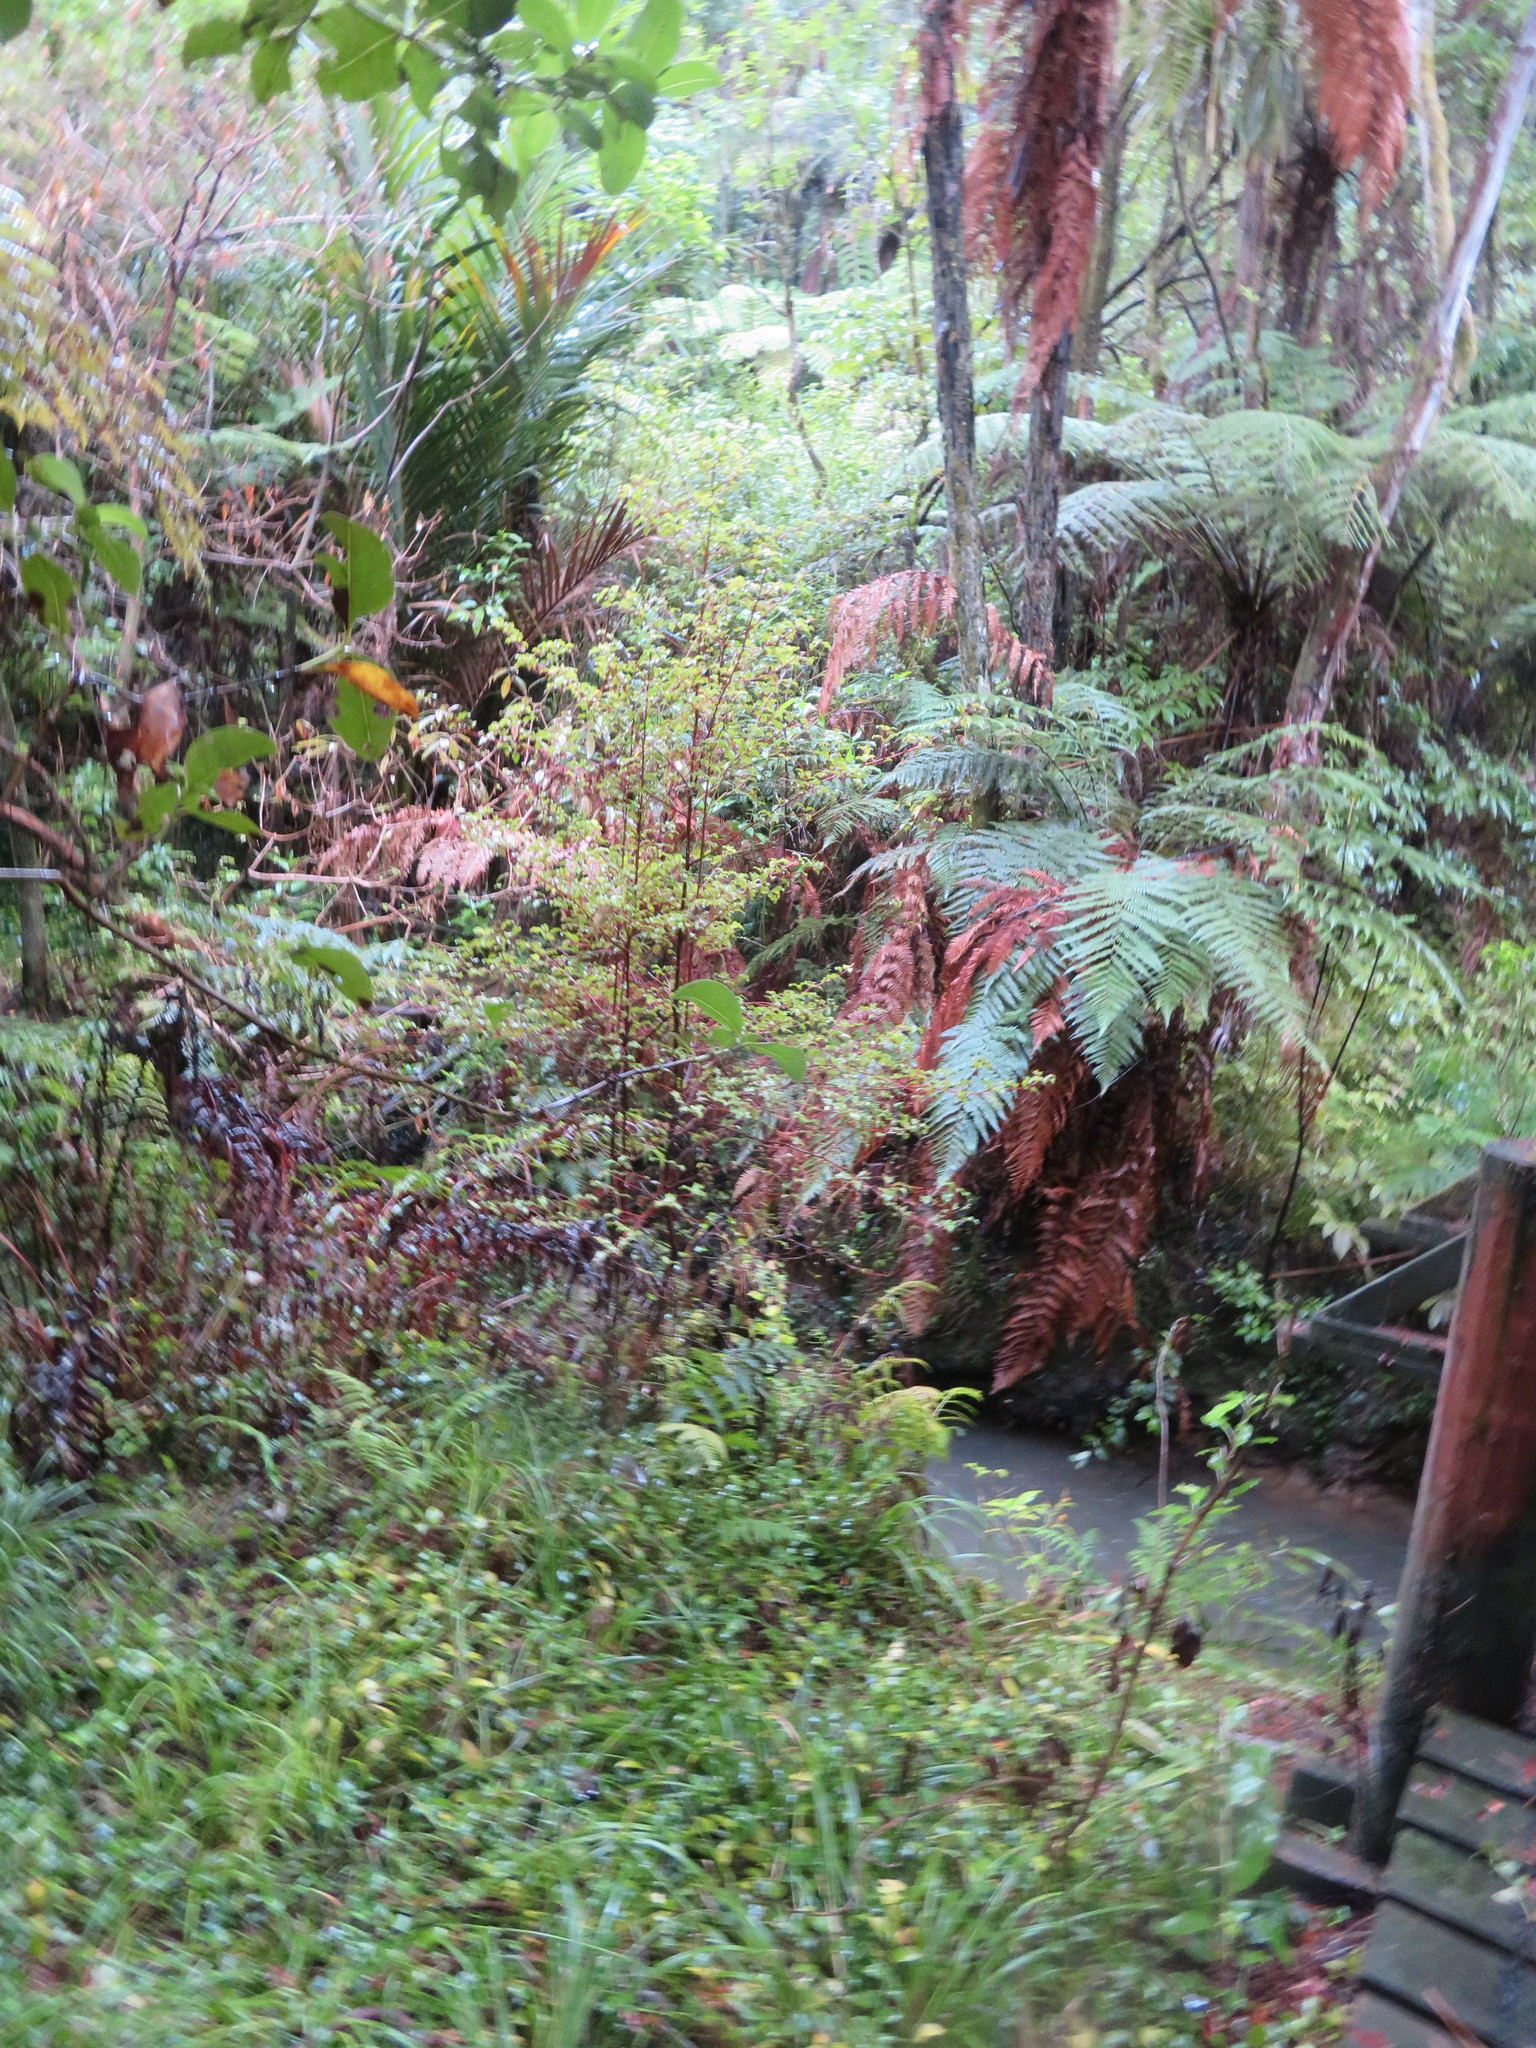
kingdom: Plantae
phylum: Tracheophyta
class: Liliopsida
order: Commelinales
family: Commelinaceae
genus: Tradescantia
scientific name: Tradescantia fluminensis
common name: Wandering-jew
